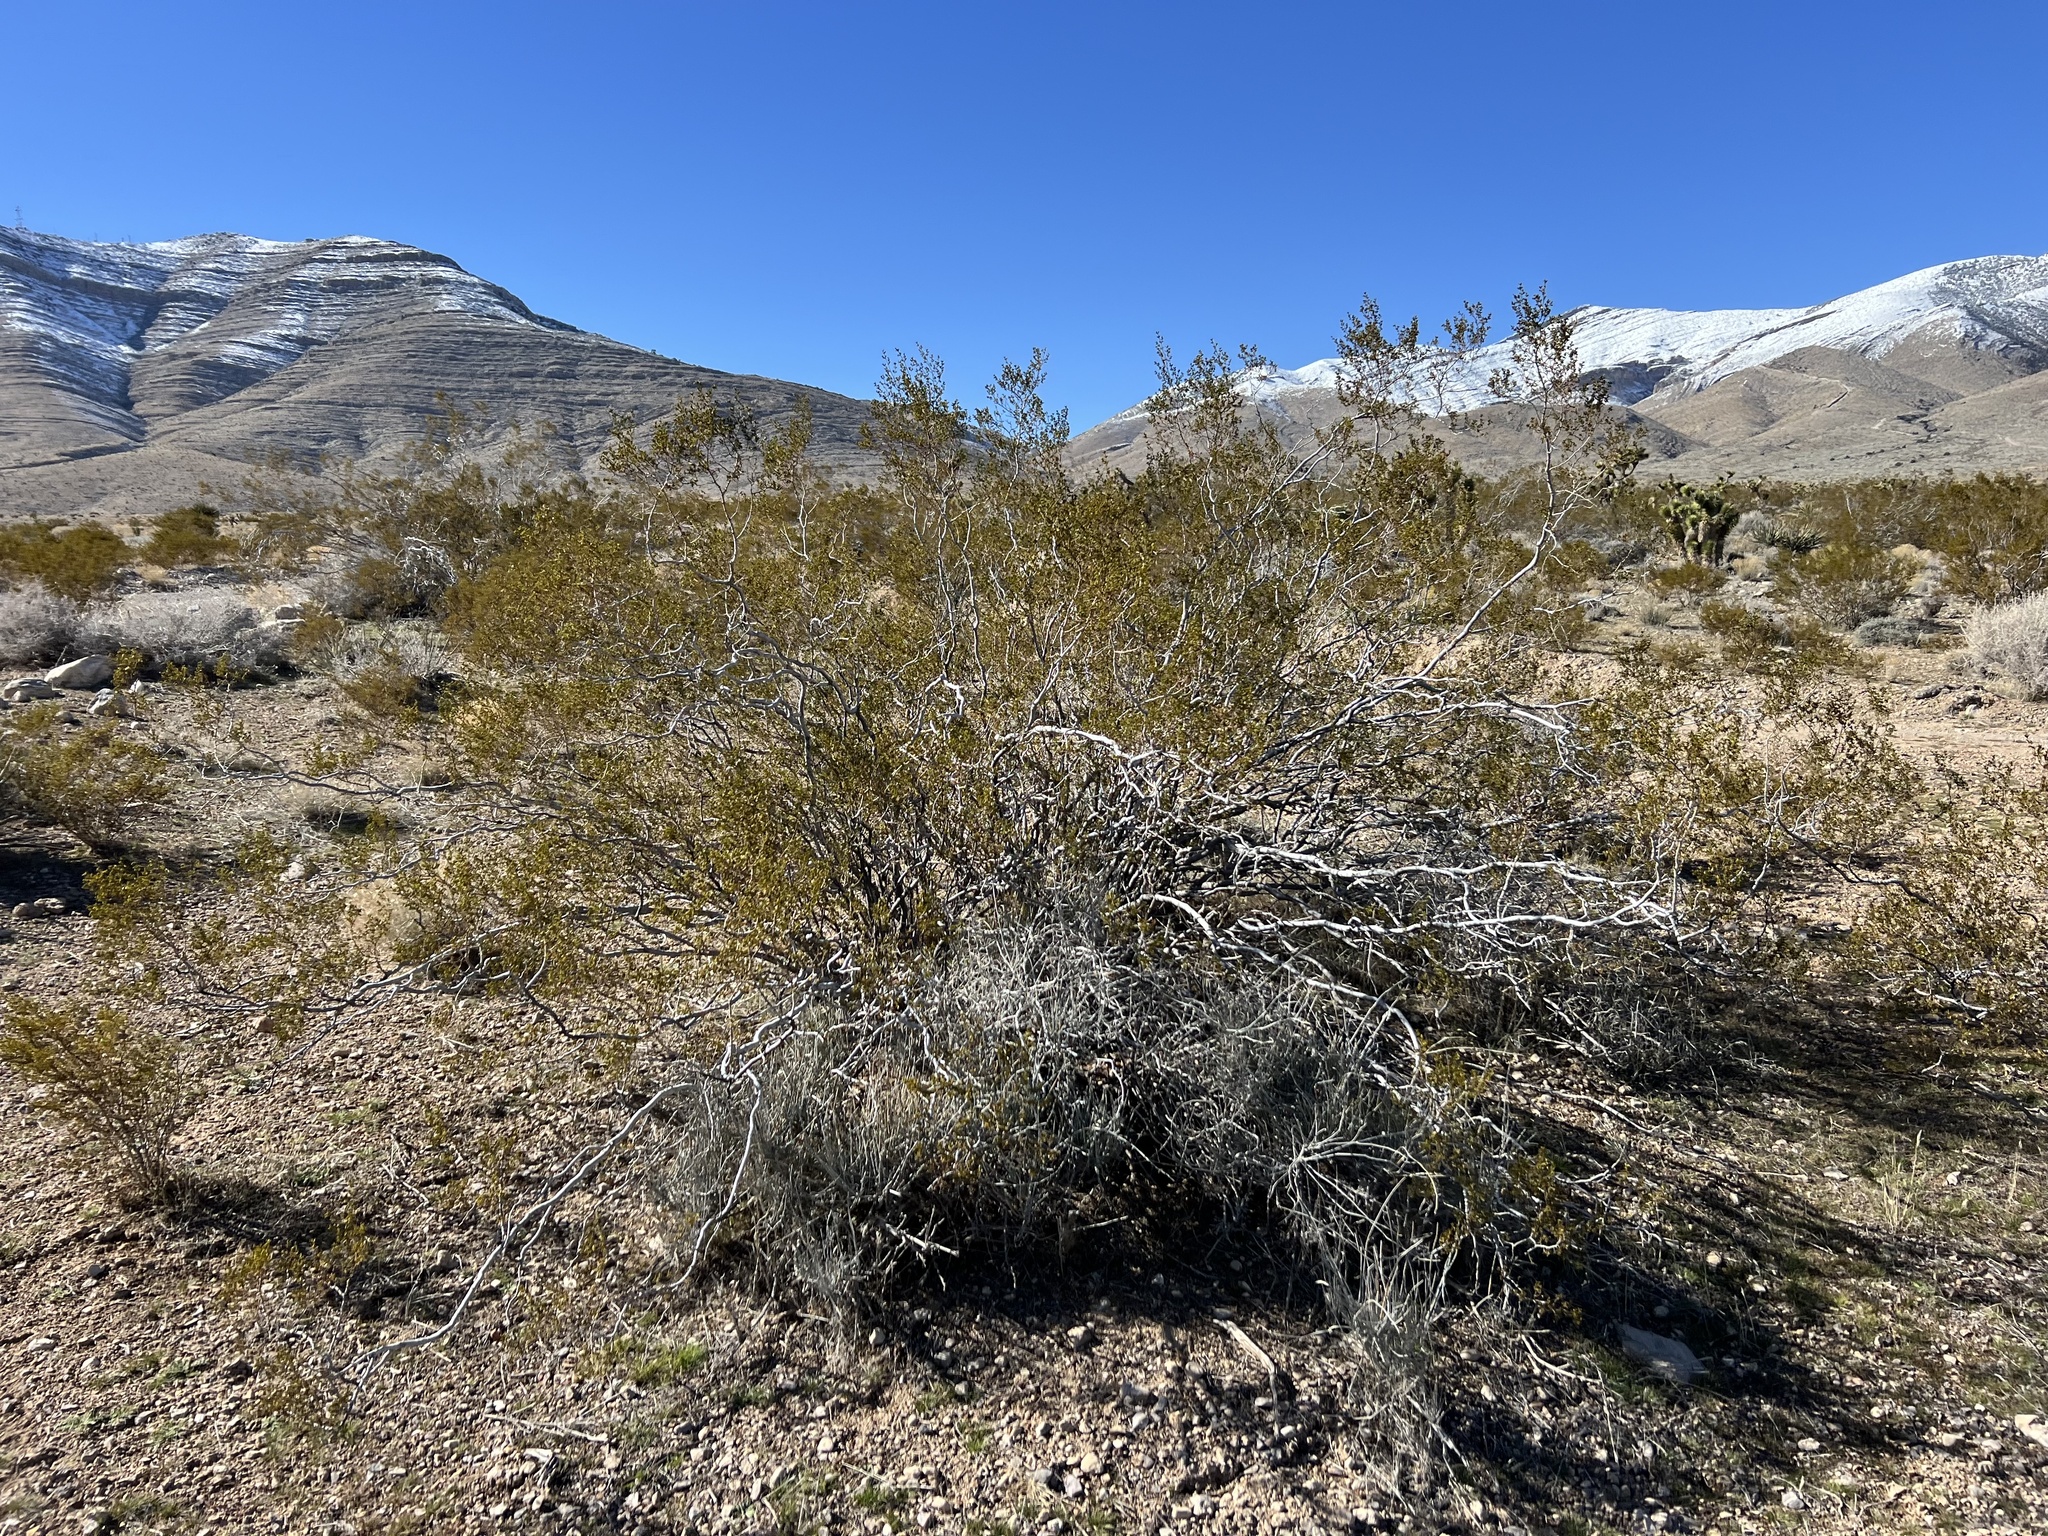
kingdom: Plantae
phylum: Tracheophyta
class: Magnoliopsida
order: Zygophyllales
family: Zygophyllaceae
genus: Larrea
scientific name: Larrea tridentata
